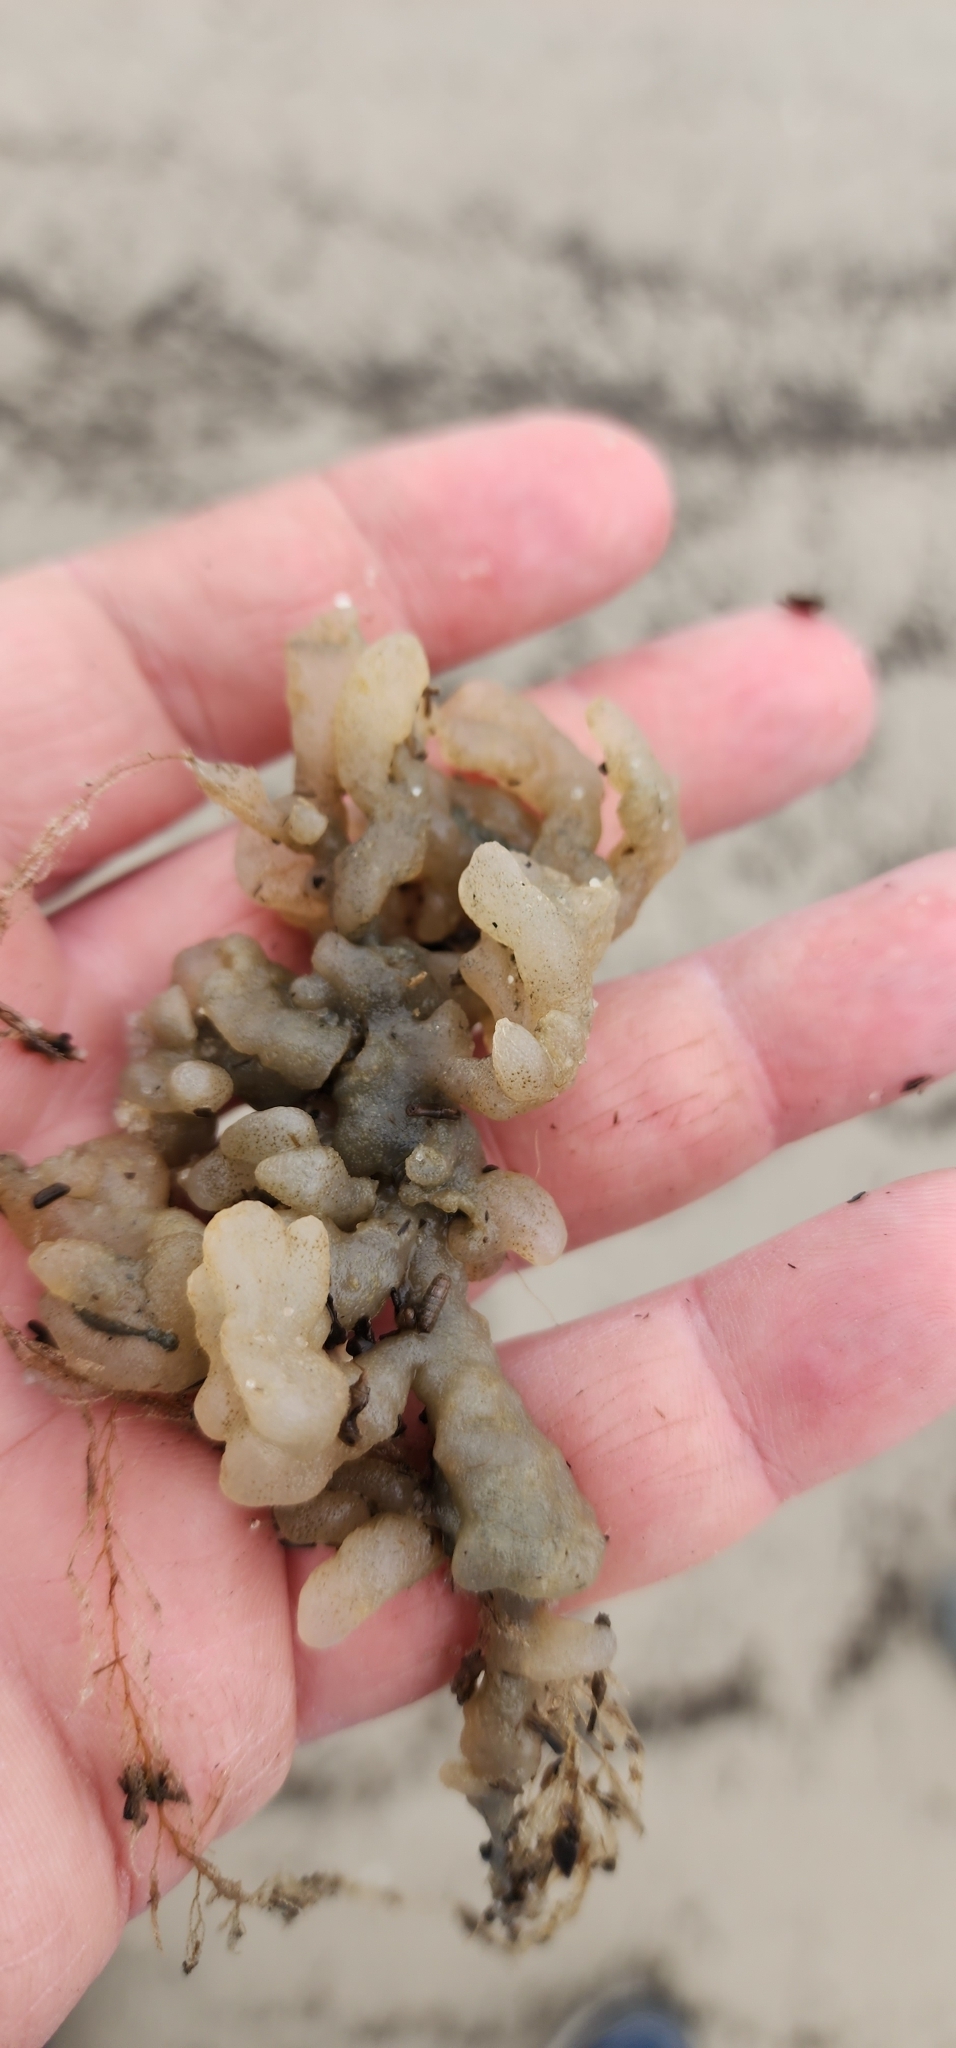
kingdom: Animalia
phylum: Bryozoa
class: Gymnolaemata
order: Ctenostomatida
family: Alcyonidiidae
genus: Alcyonidium
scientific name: Alcyonidium hauffi
